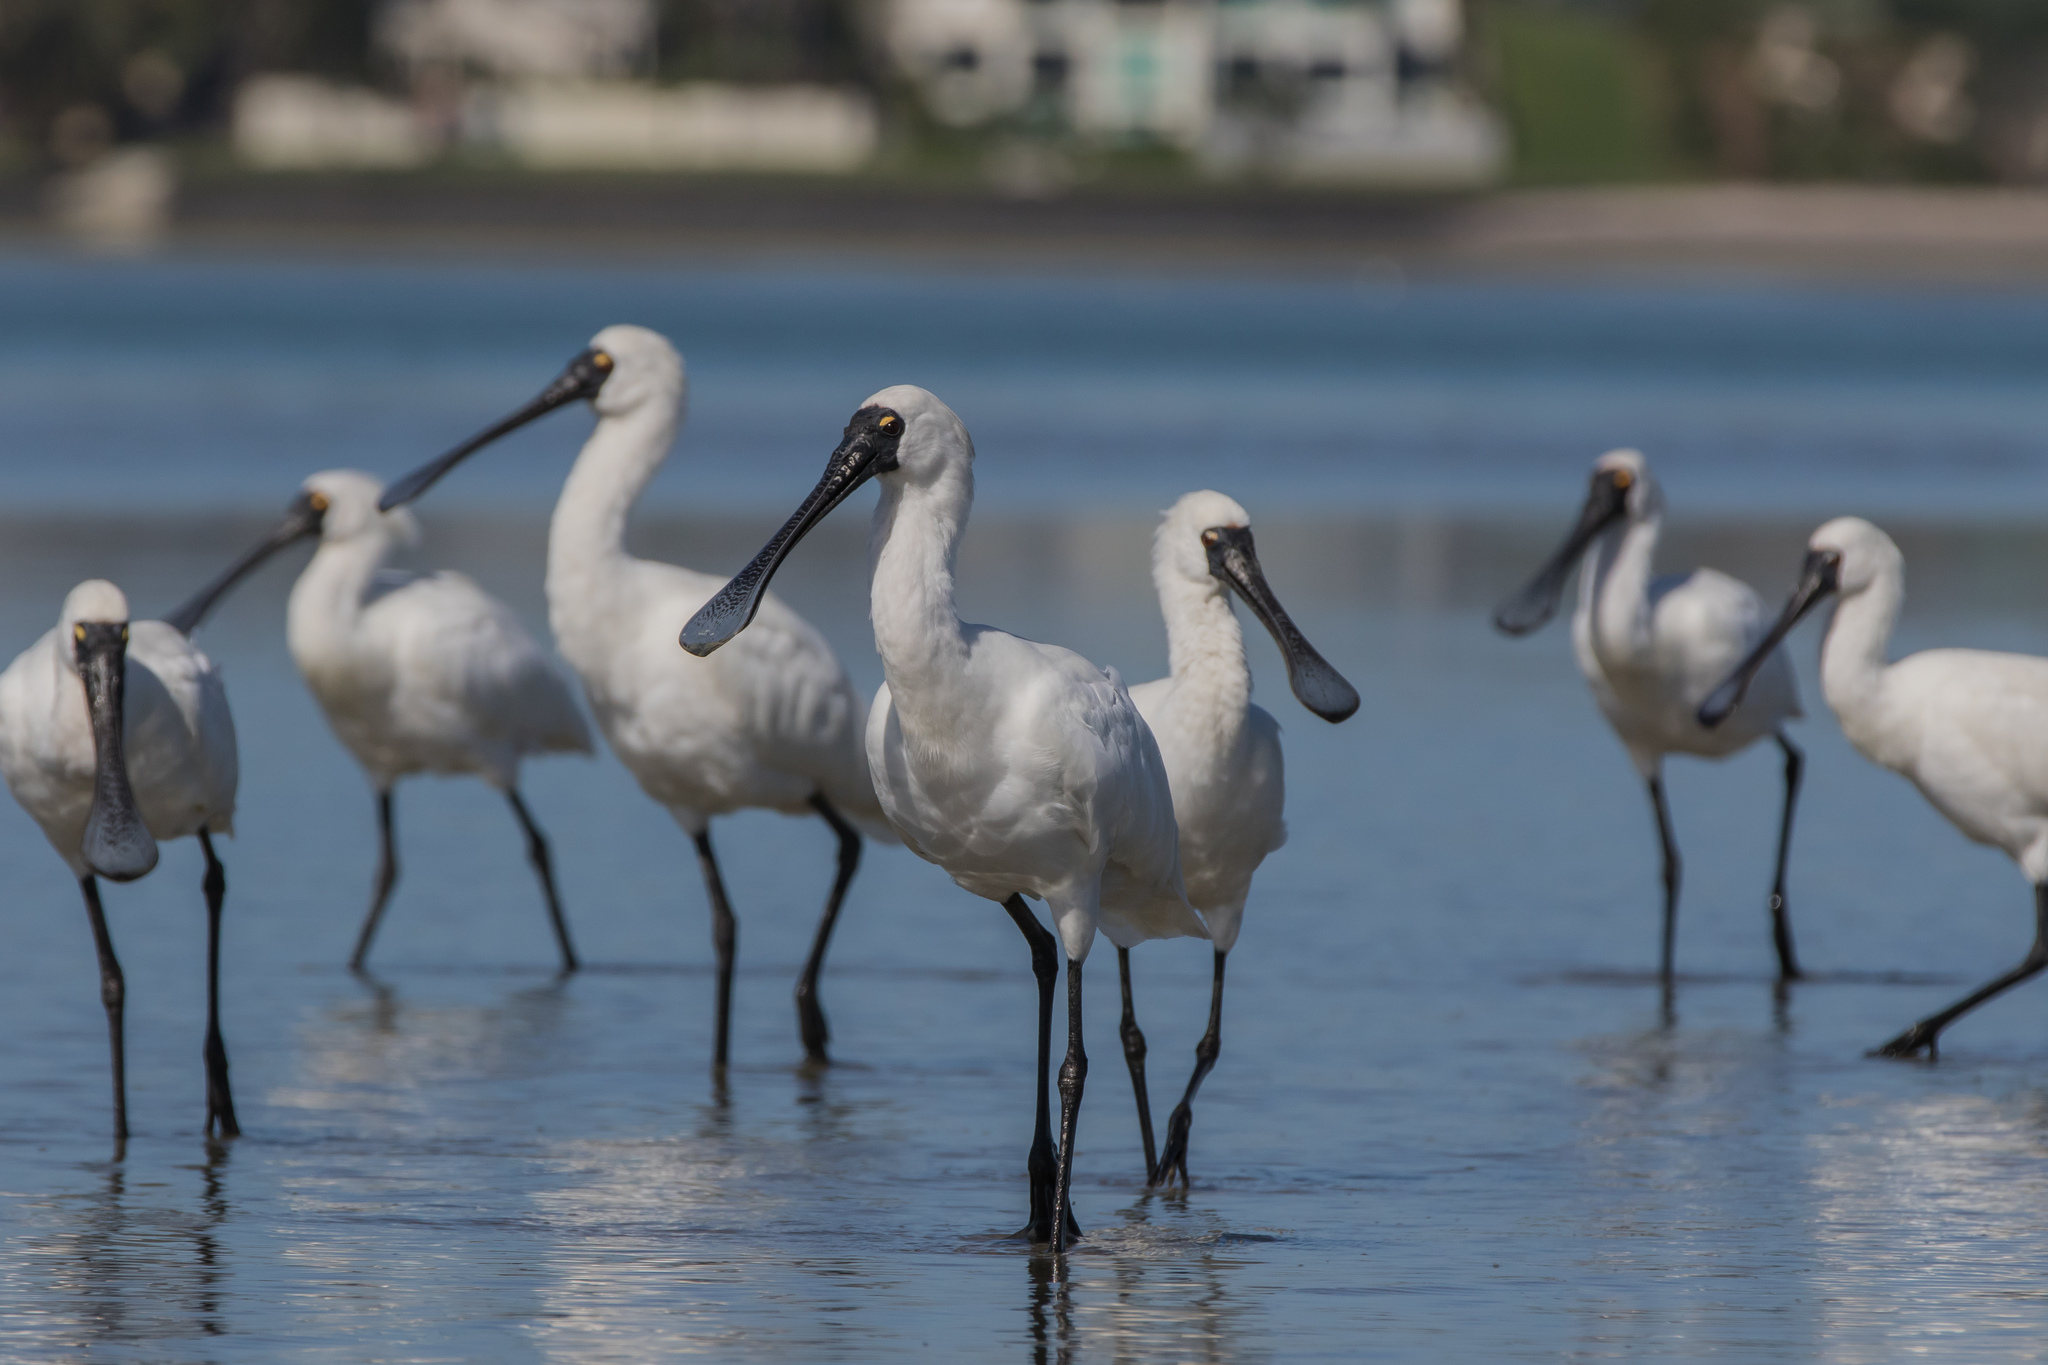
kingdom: Animalia
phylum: Chordata
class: Aves
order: Pelecaniformes
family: Threskiornithidae
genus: Platalea
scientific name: Platalea regia
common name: Royal spoonbill
